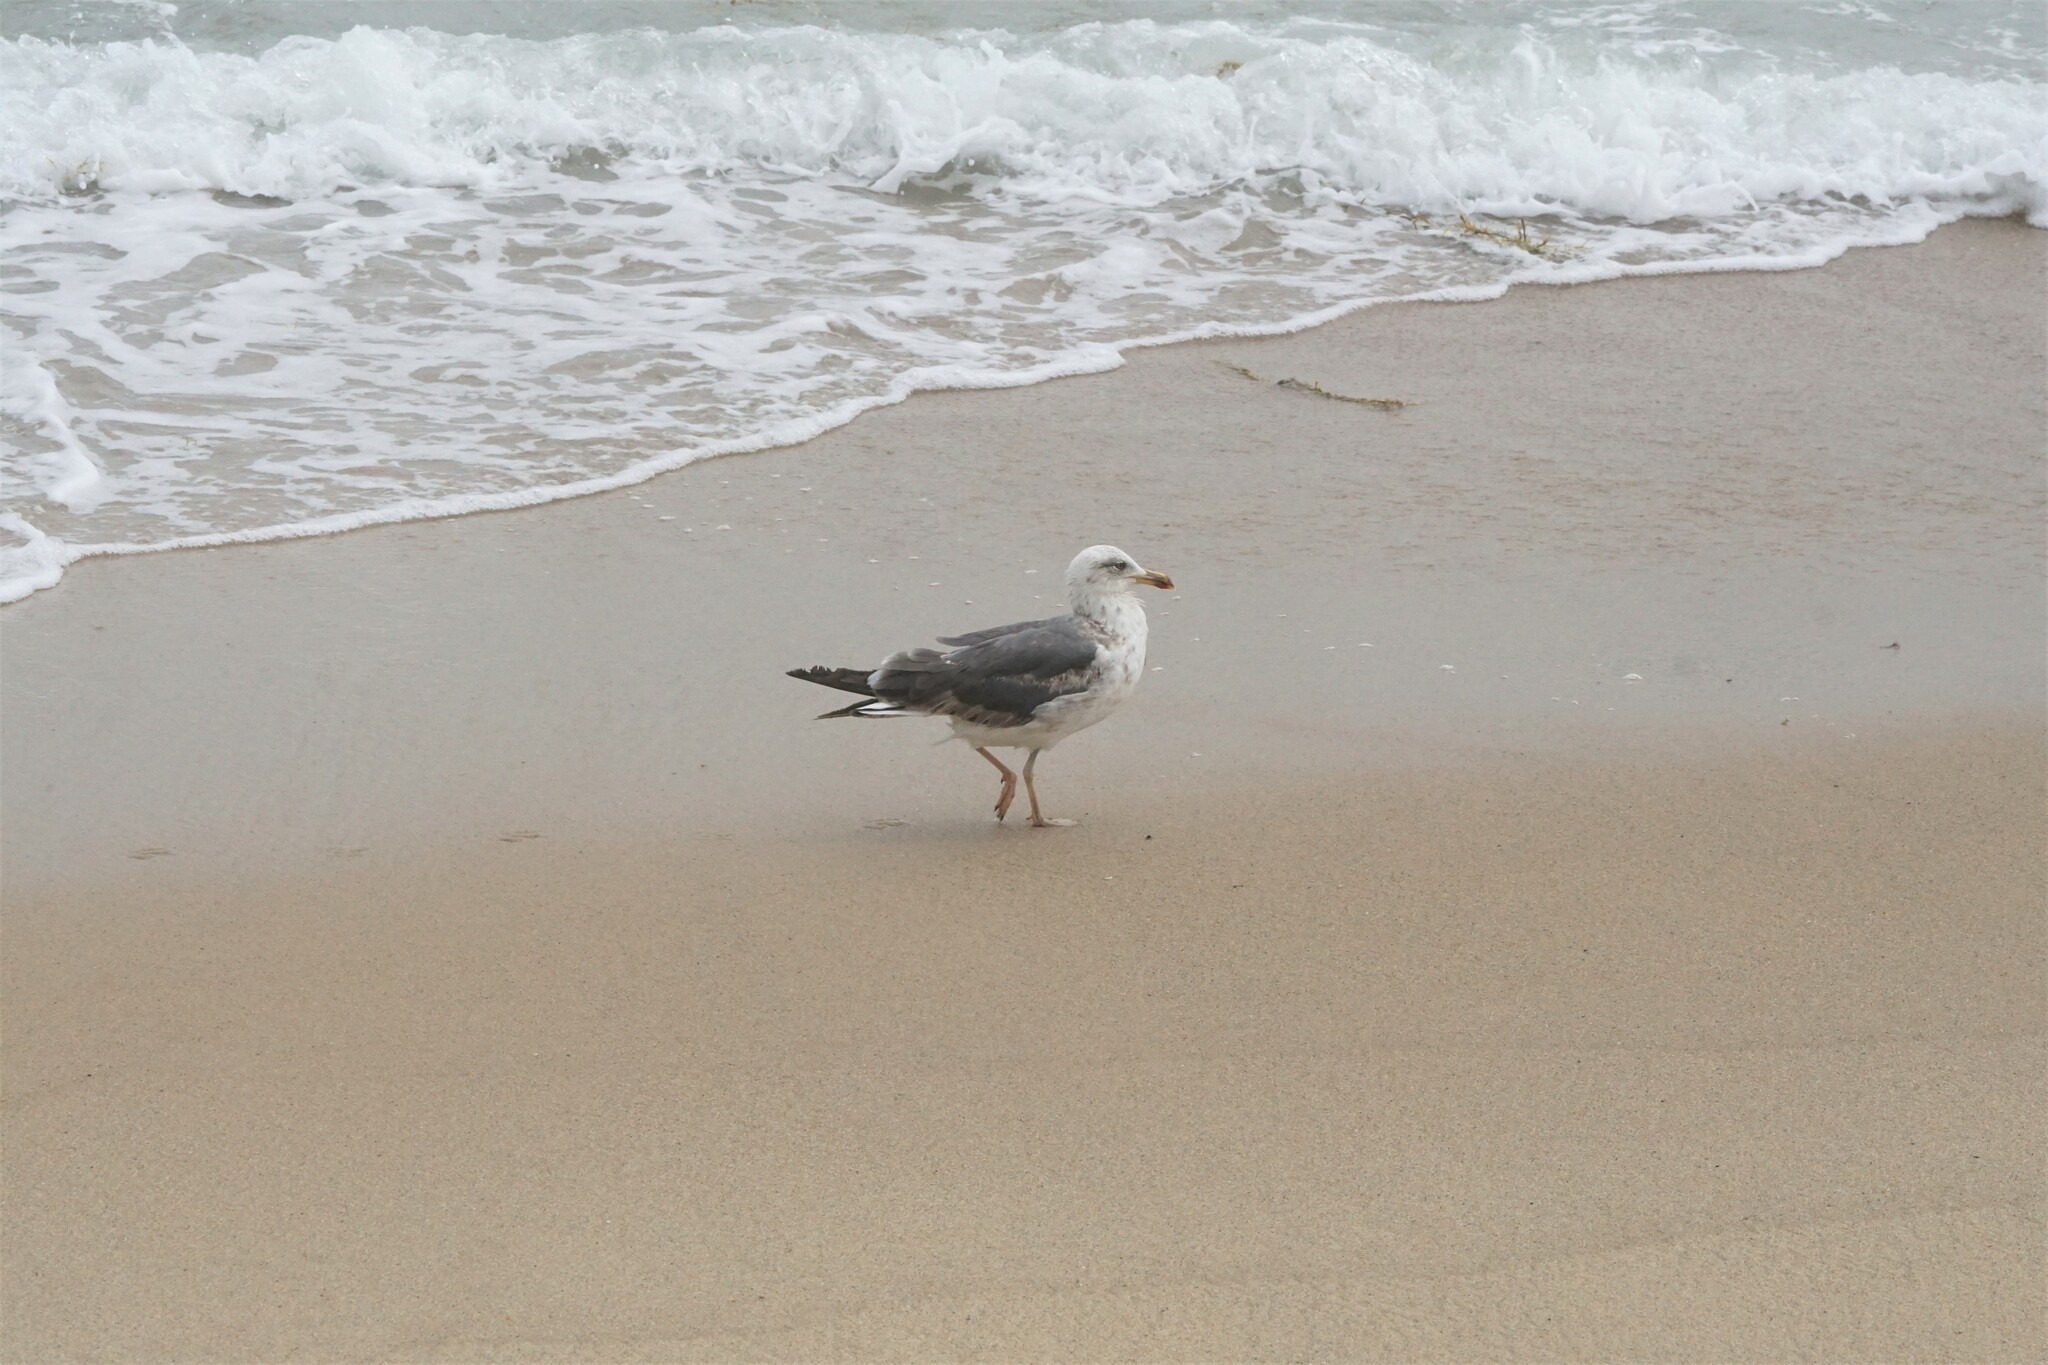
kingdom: Animalia
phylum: Chordata
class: Aves
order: Charadriiformes
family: Laridae
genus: Larus
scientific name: Larus fuscus
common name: Lesser black-backed gull
